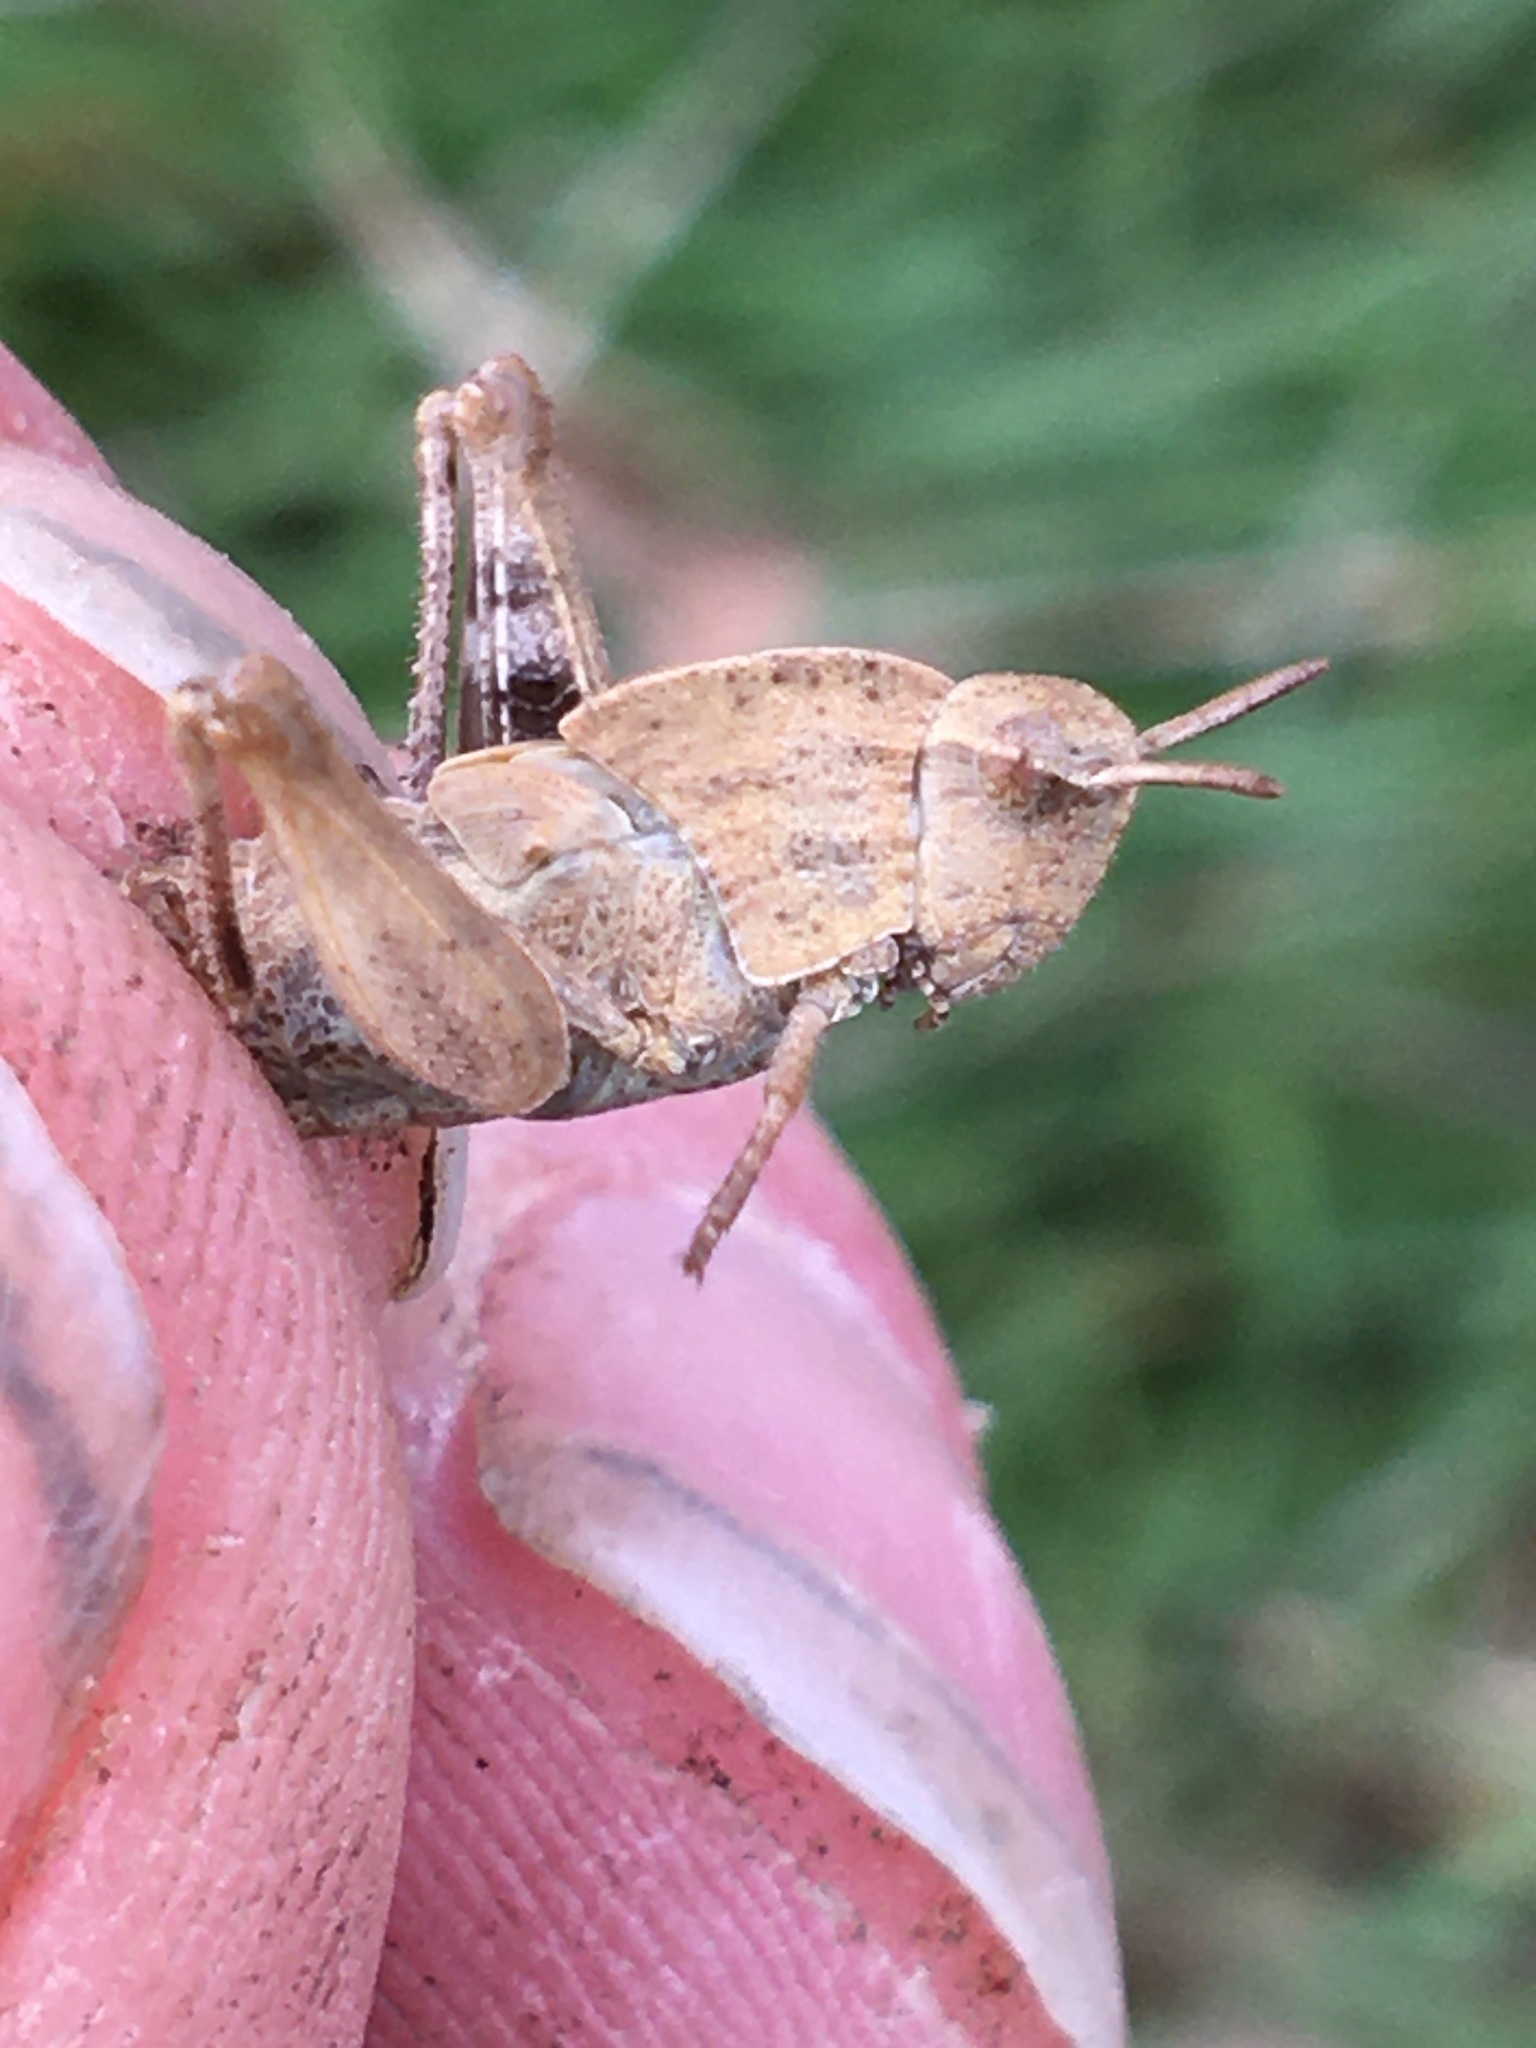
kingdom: Animalia
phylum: Arthropoda
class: Insecta
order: Orthoptera
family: Acrididae
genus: Chortophaga
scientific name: Chortophaga viridifasciata
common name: Green-striped grasshopper
